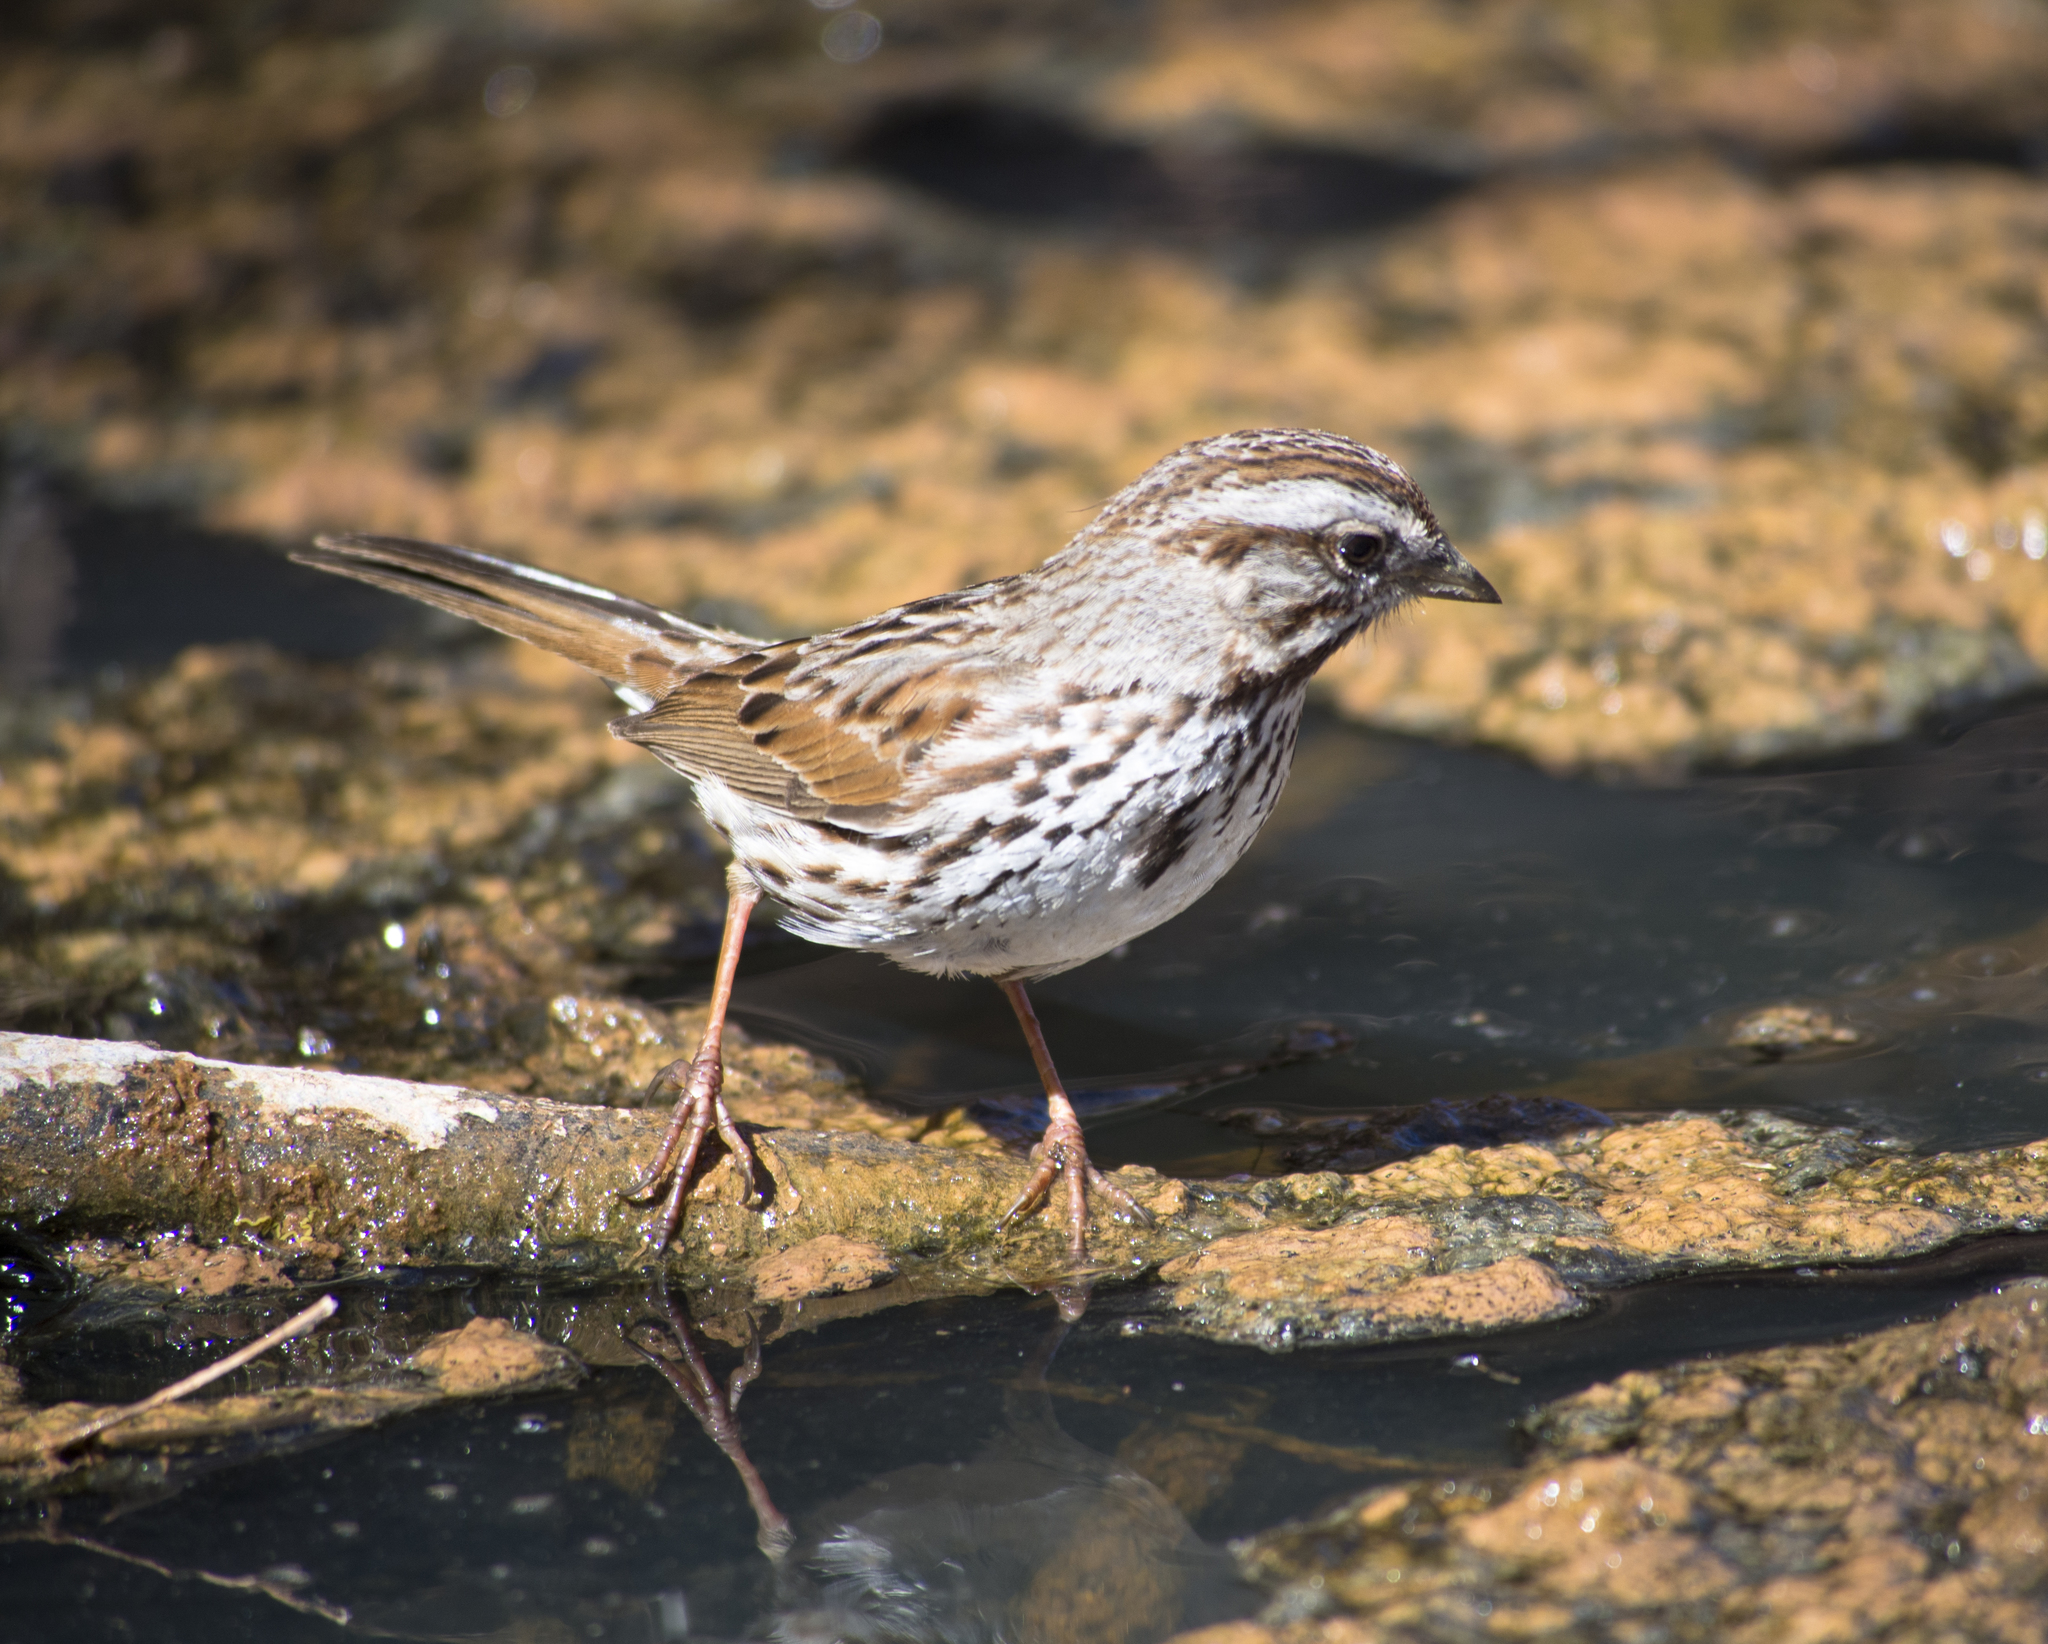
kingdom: Animalia
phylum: Chordata
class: Aves
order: Passeriformes
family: Passerellidae
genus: Melospiza
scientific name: Melospiza melodia
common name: Song sparrow
